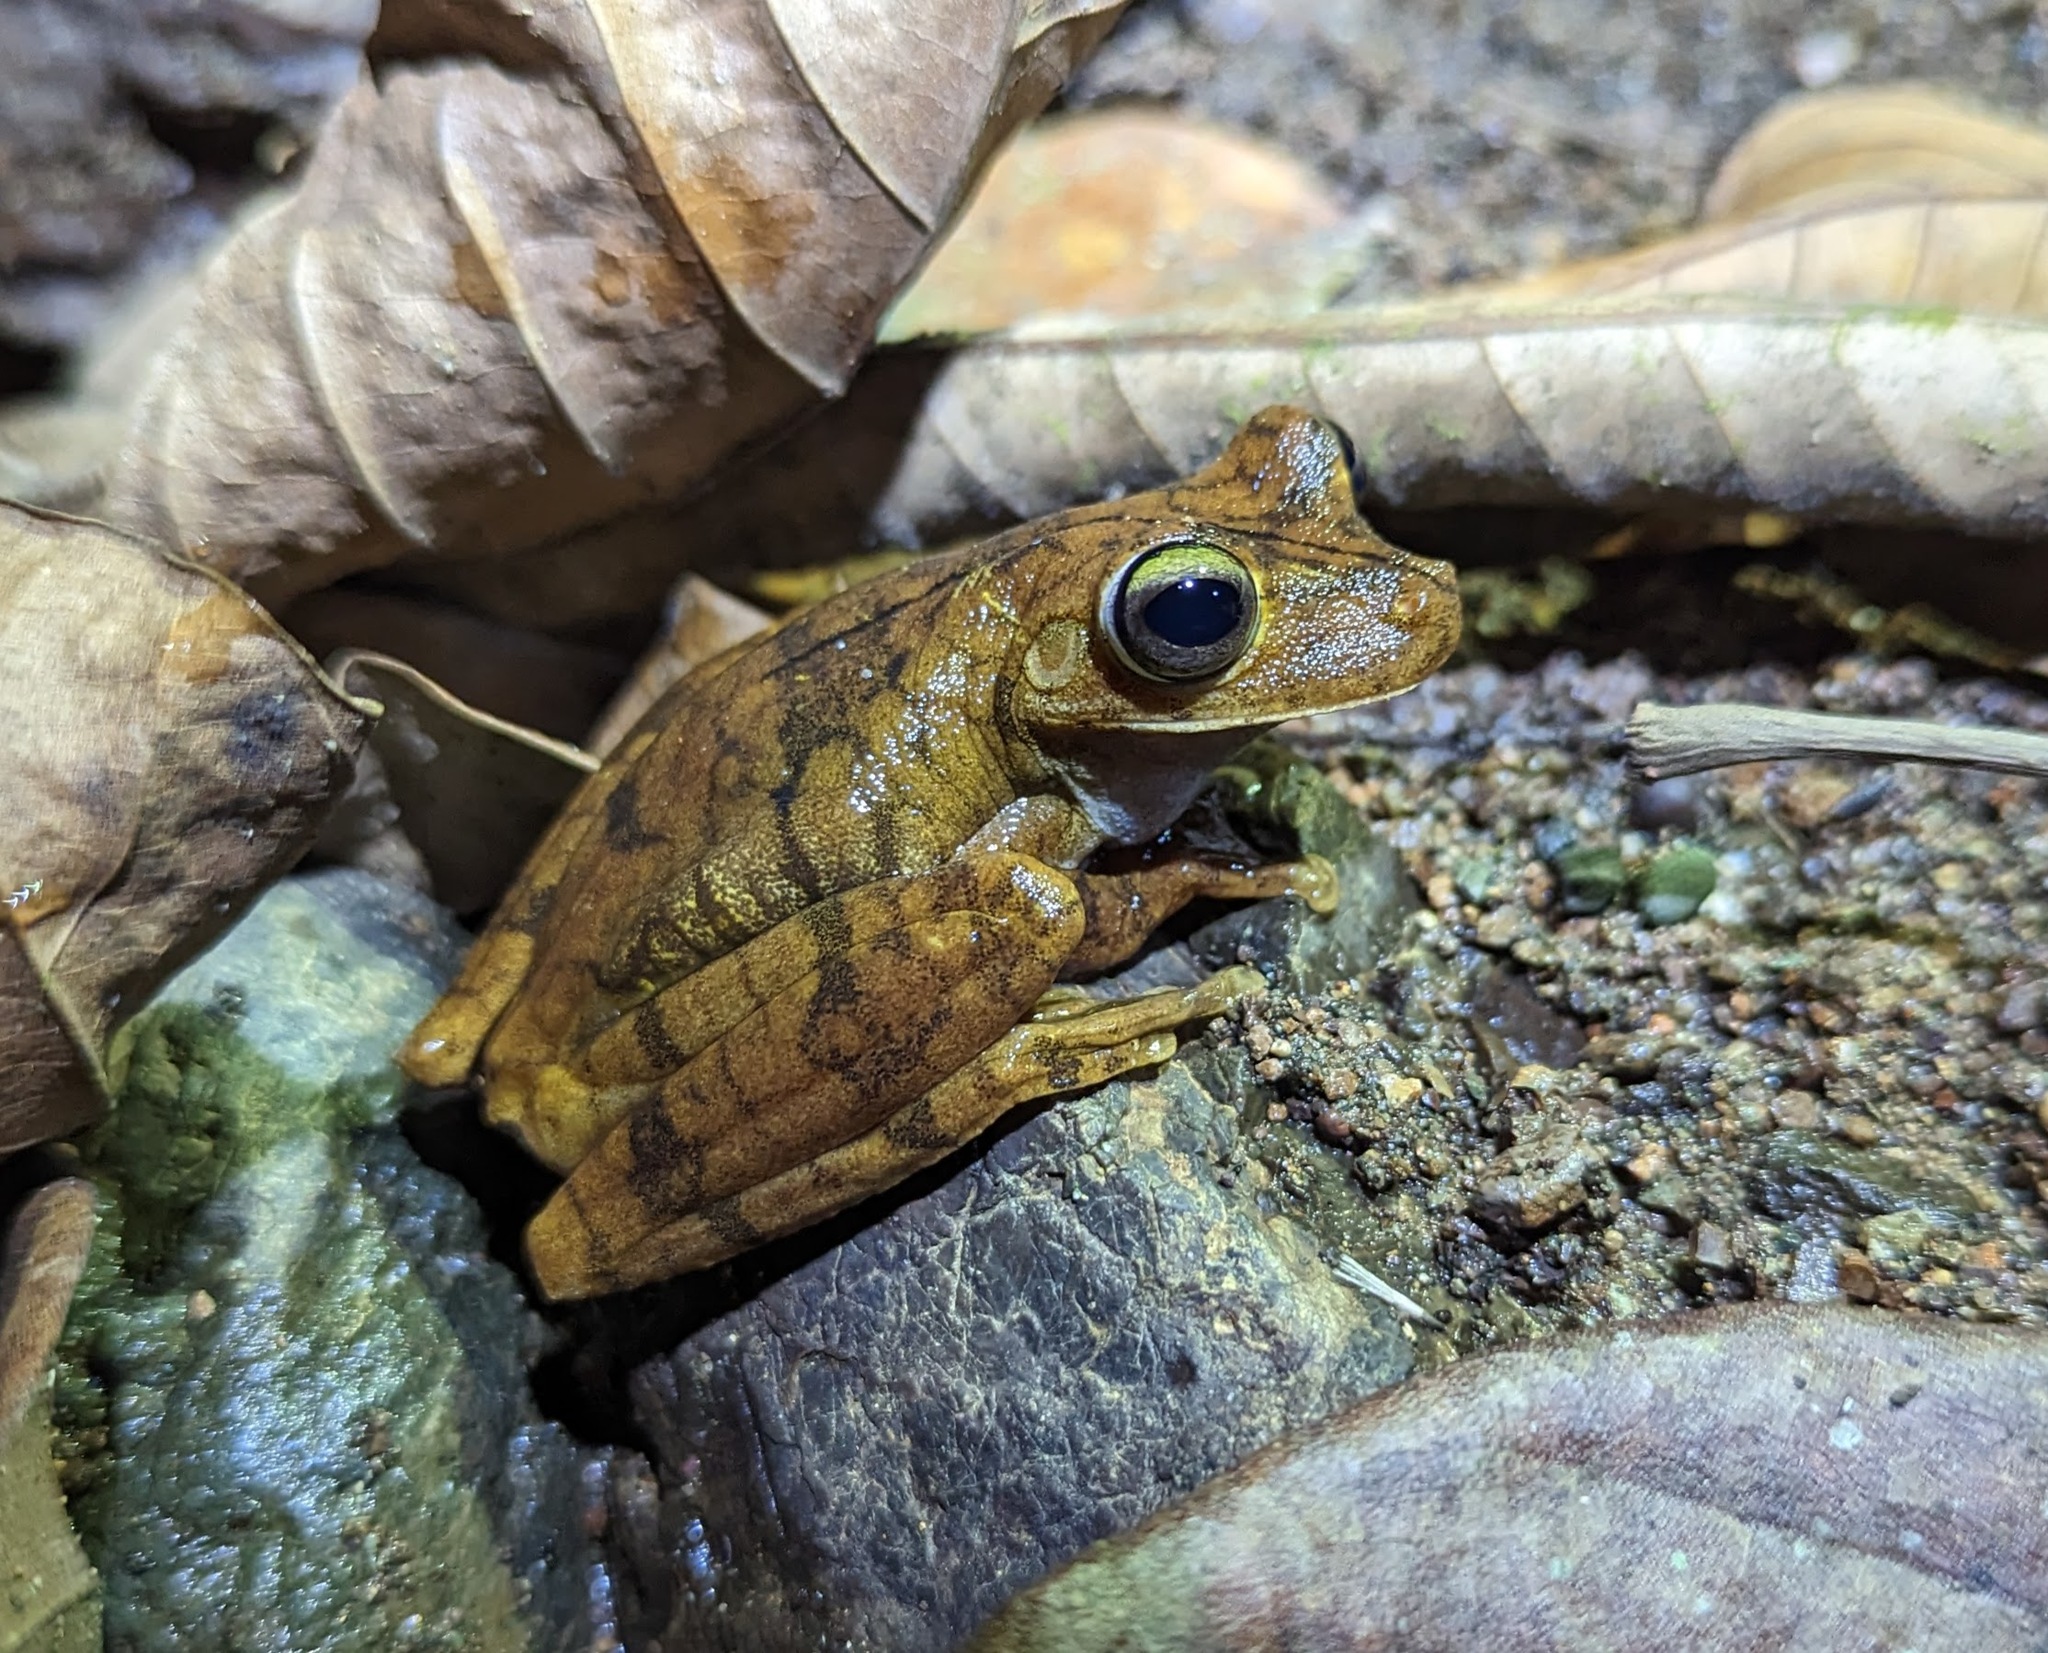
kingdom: Animalia
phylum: Chordata
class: Amphibia
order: Anura
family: Hylidae
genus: Boana
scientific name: Boana rosenbergi
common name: Rosenberg´s gladiator treefrog
